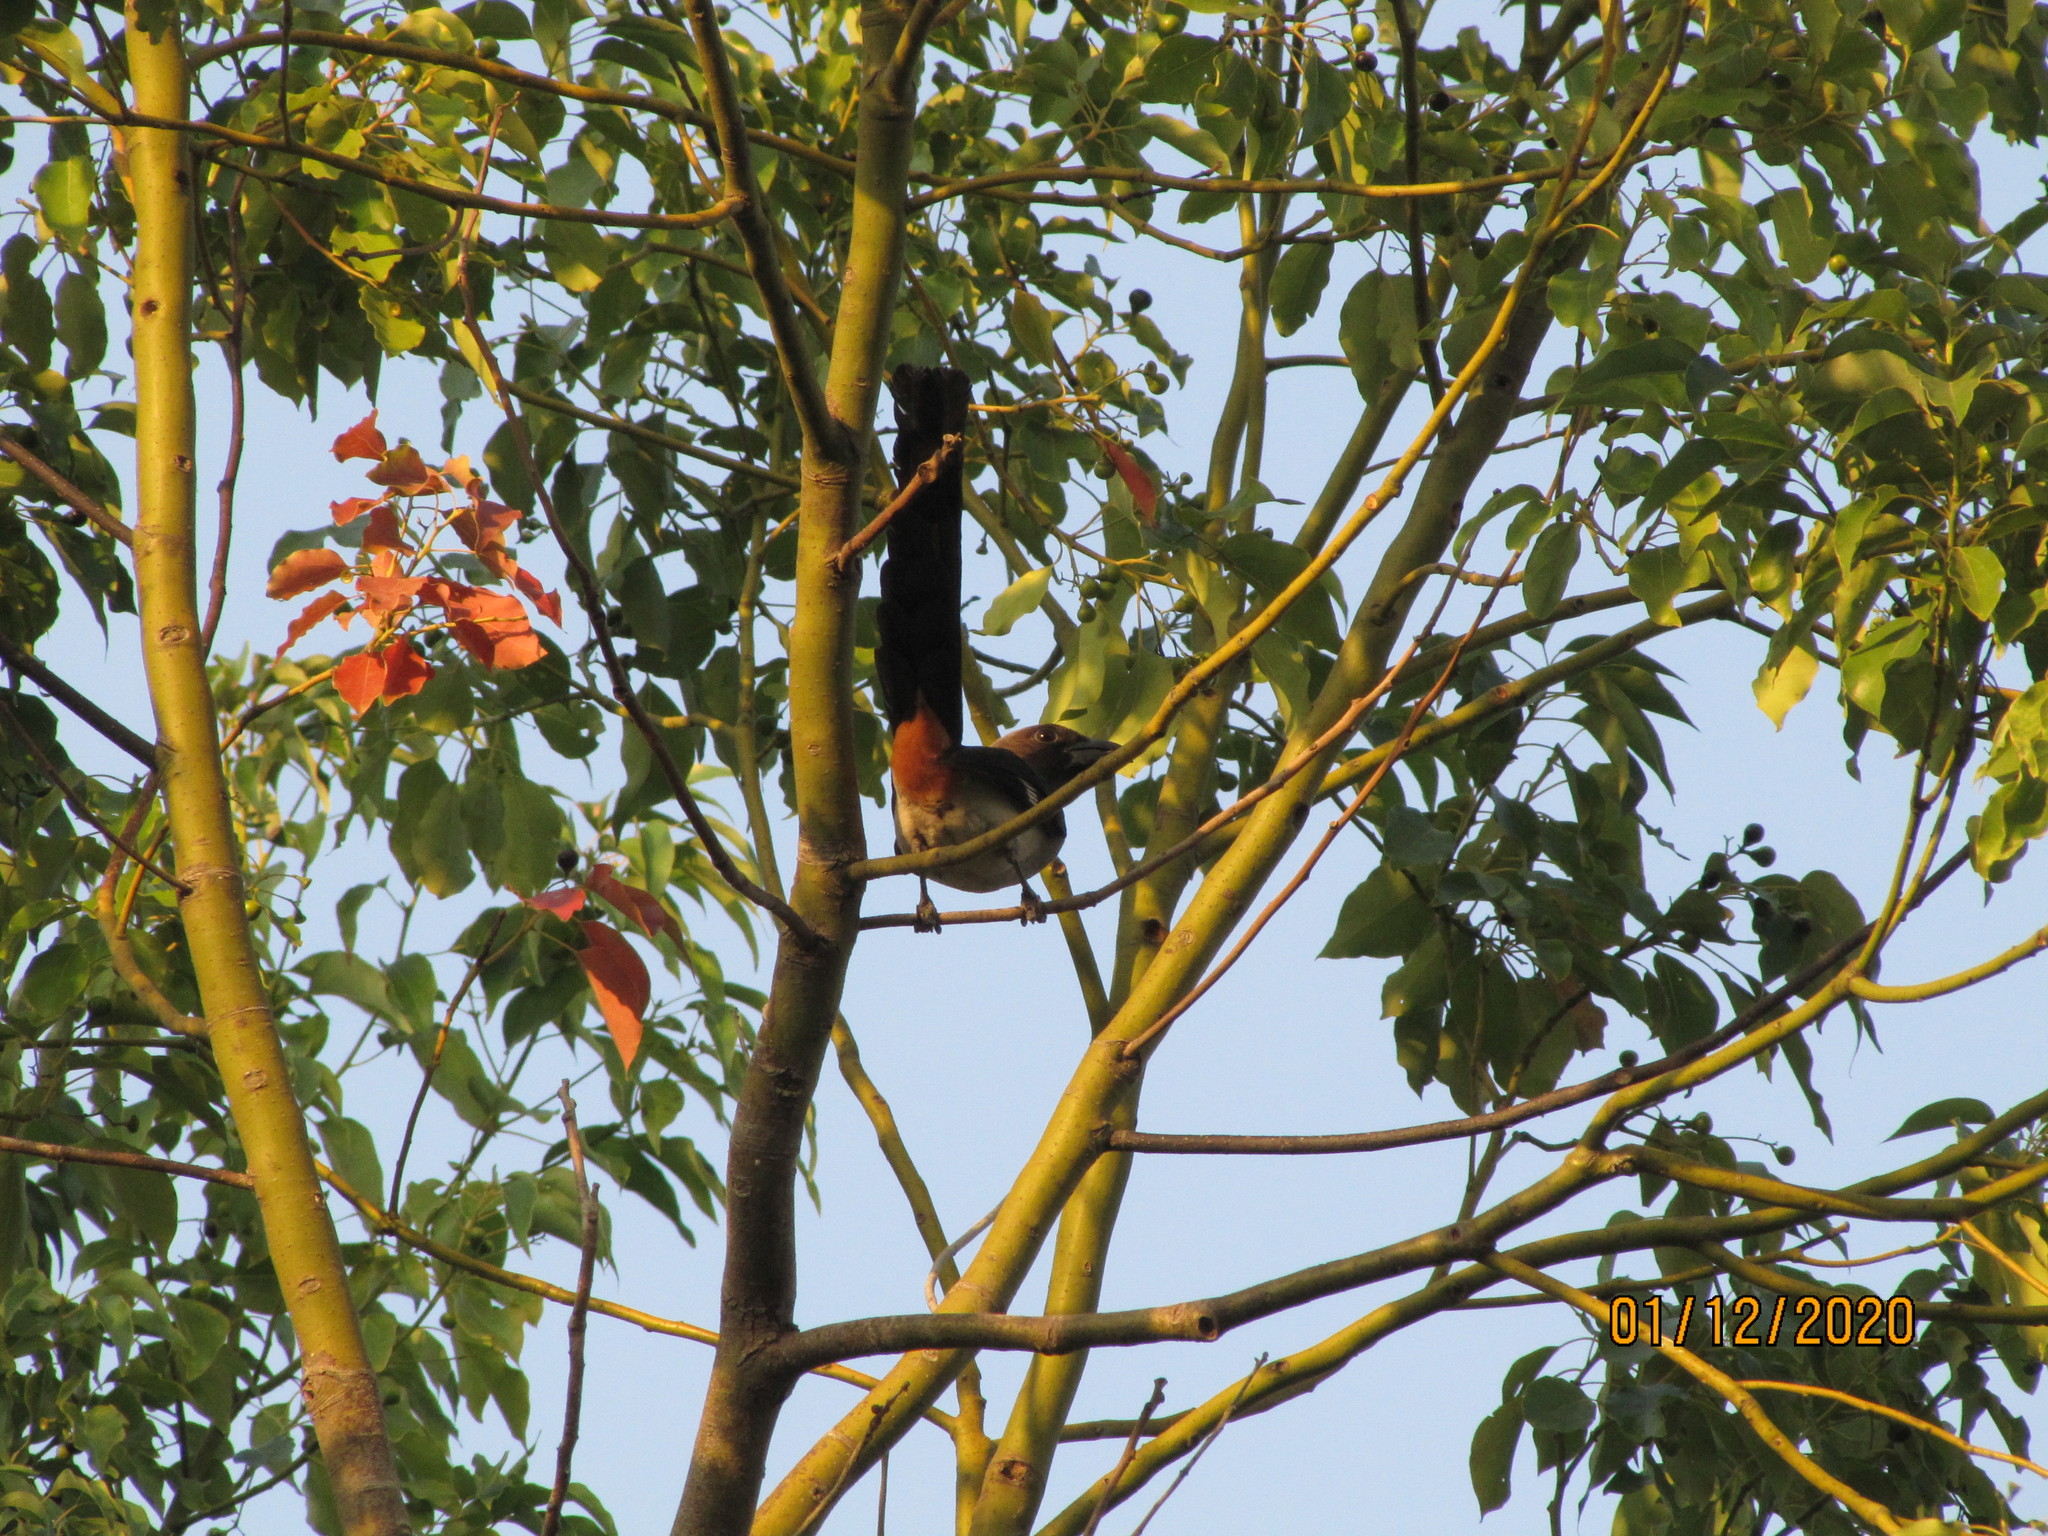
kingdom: Animalia
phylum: Chordata
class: Aves
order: Passeriformes
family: Corvidae
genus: Dendrocitta
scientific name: Dendrocitta formosae
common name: Grey treepie
